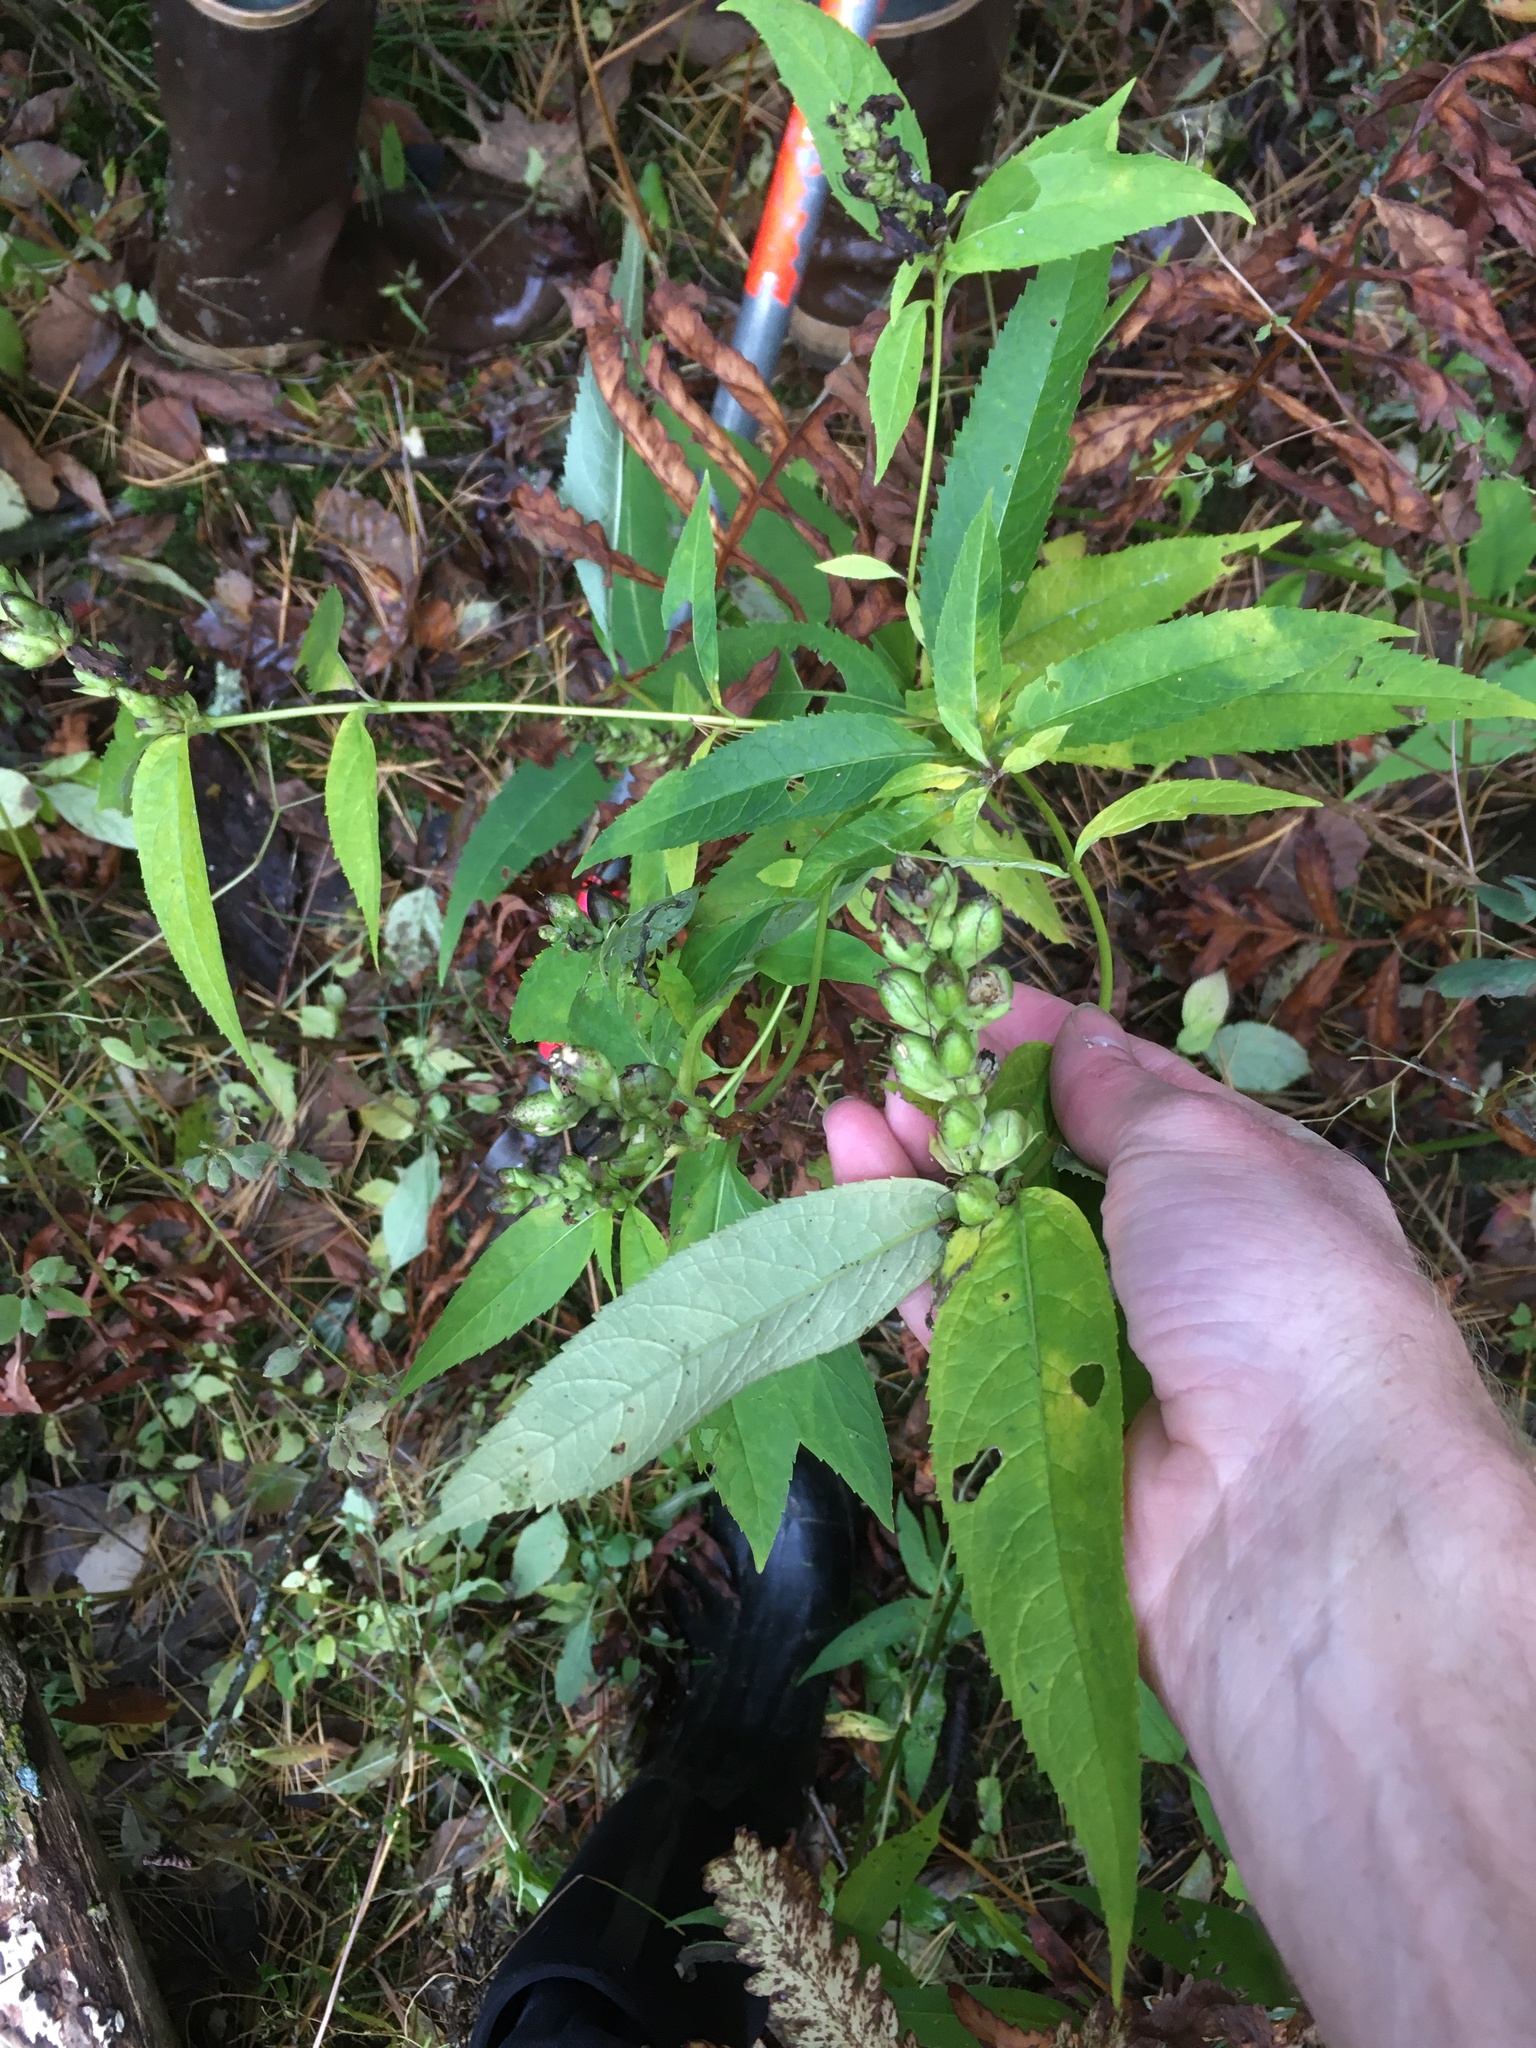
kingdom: Plantae
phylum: Tracheophyta
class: Magnoliopsida
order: Lamiales
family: Plantaginaceae
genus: Chelone
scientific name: Chelone glabra
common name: Snakehead
